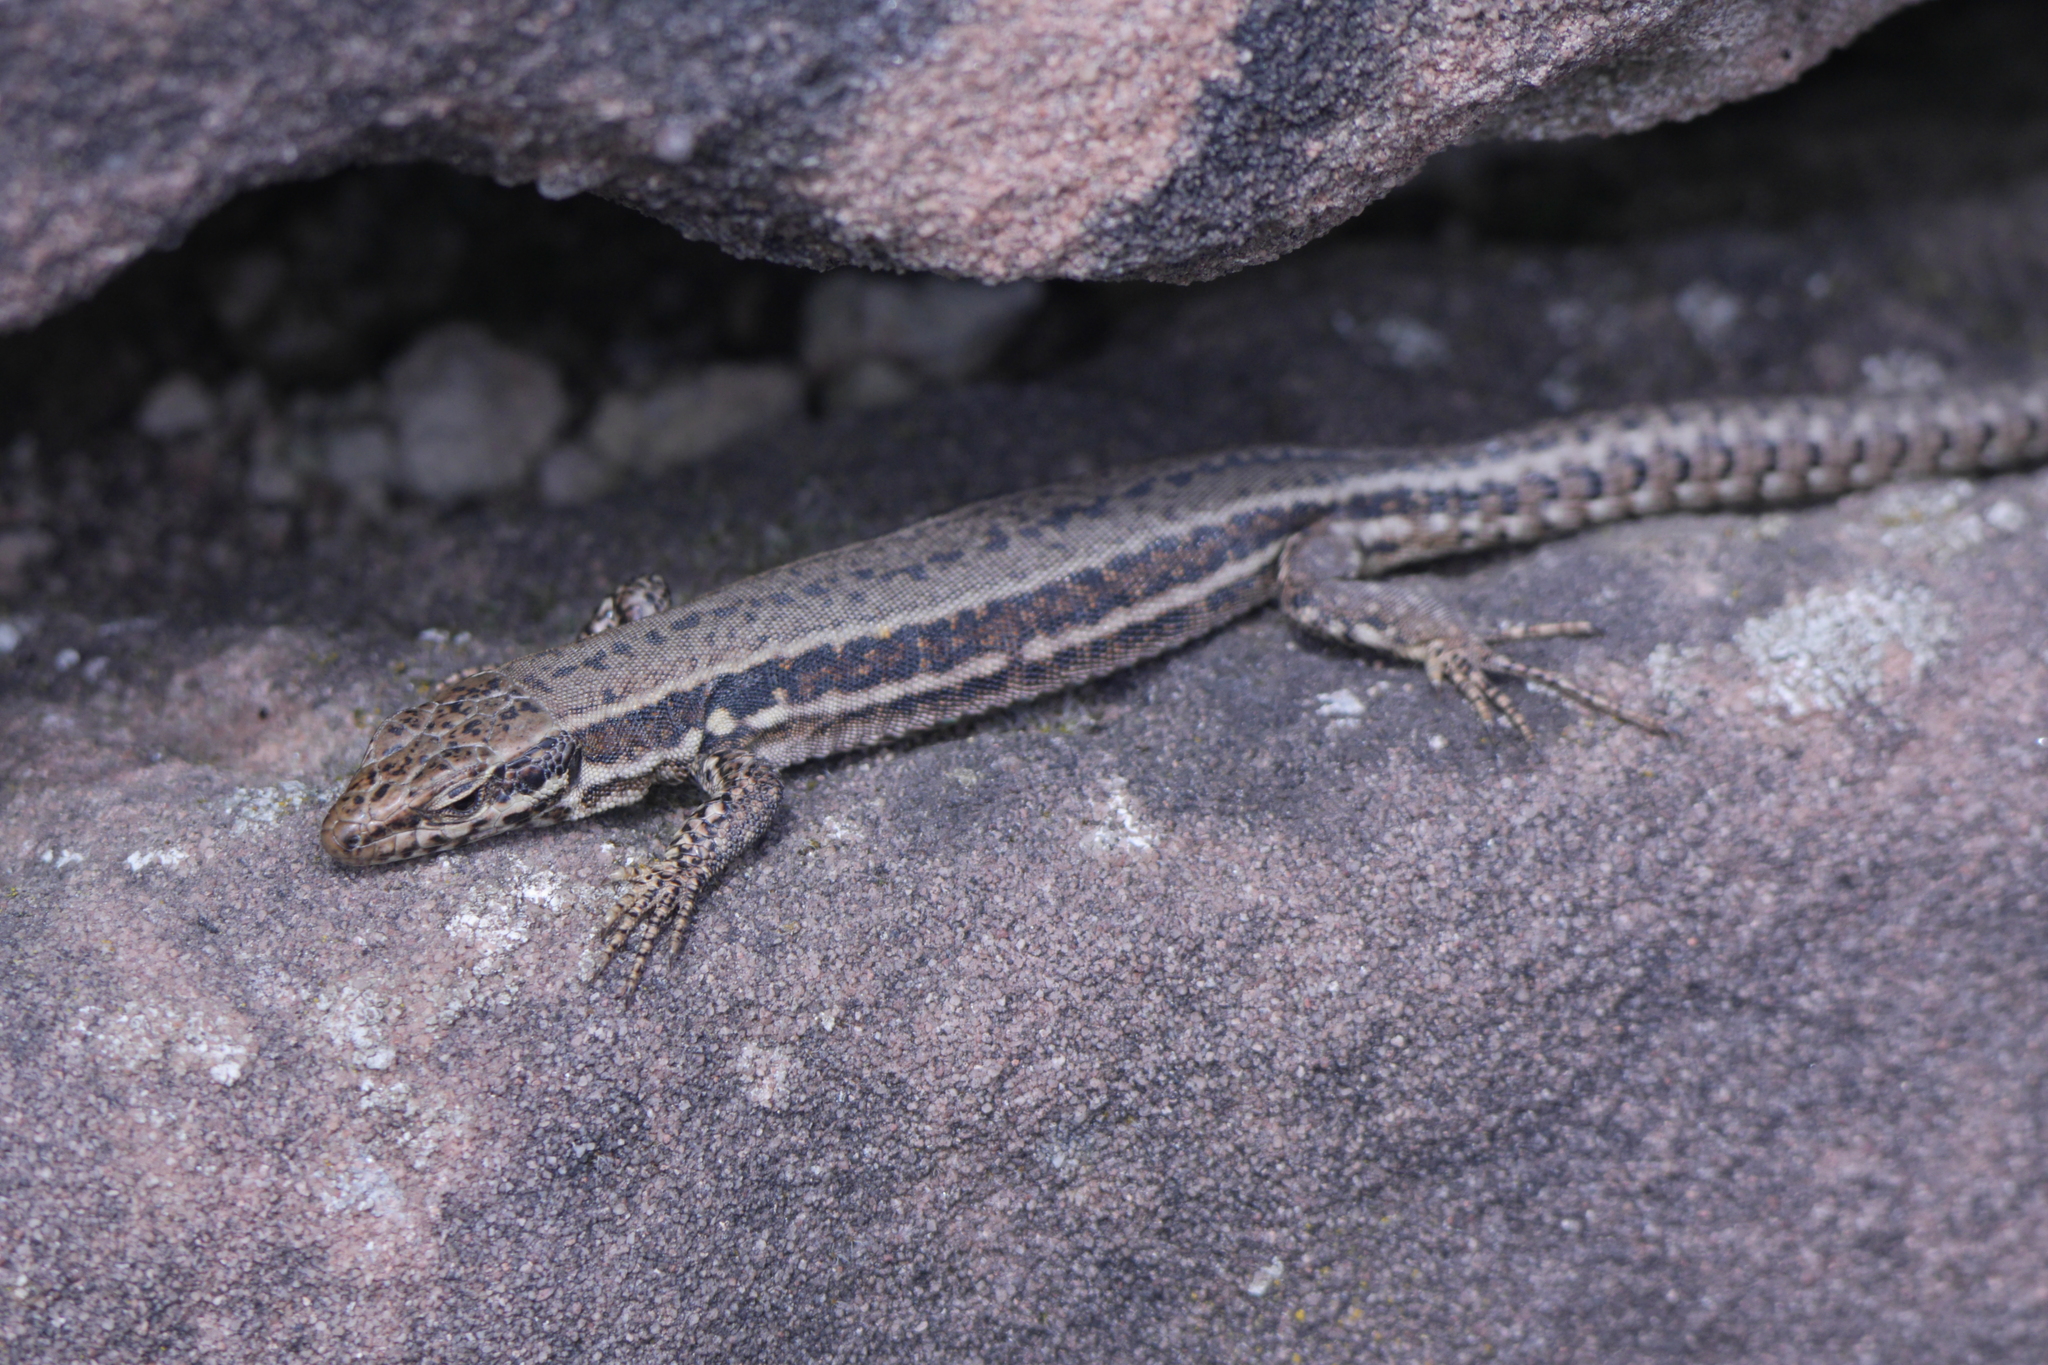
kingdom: Animalia
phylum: Chordata
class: Squamata
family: Lacertidae
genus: Podarcis
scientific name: Podarcis muralis
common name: Common wall lizard
